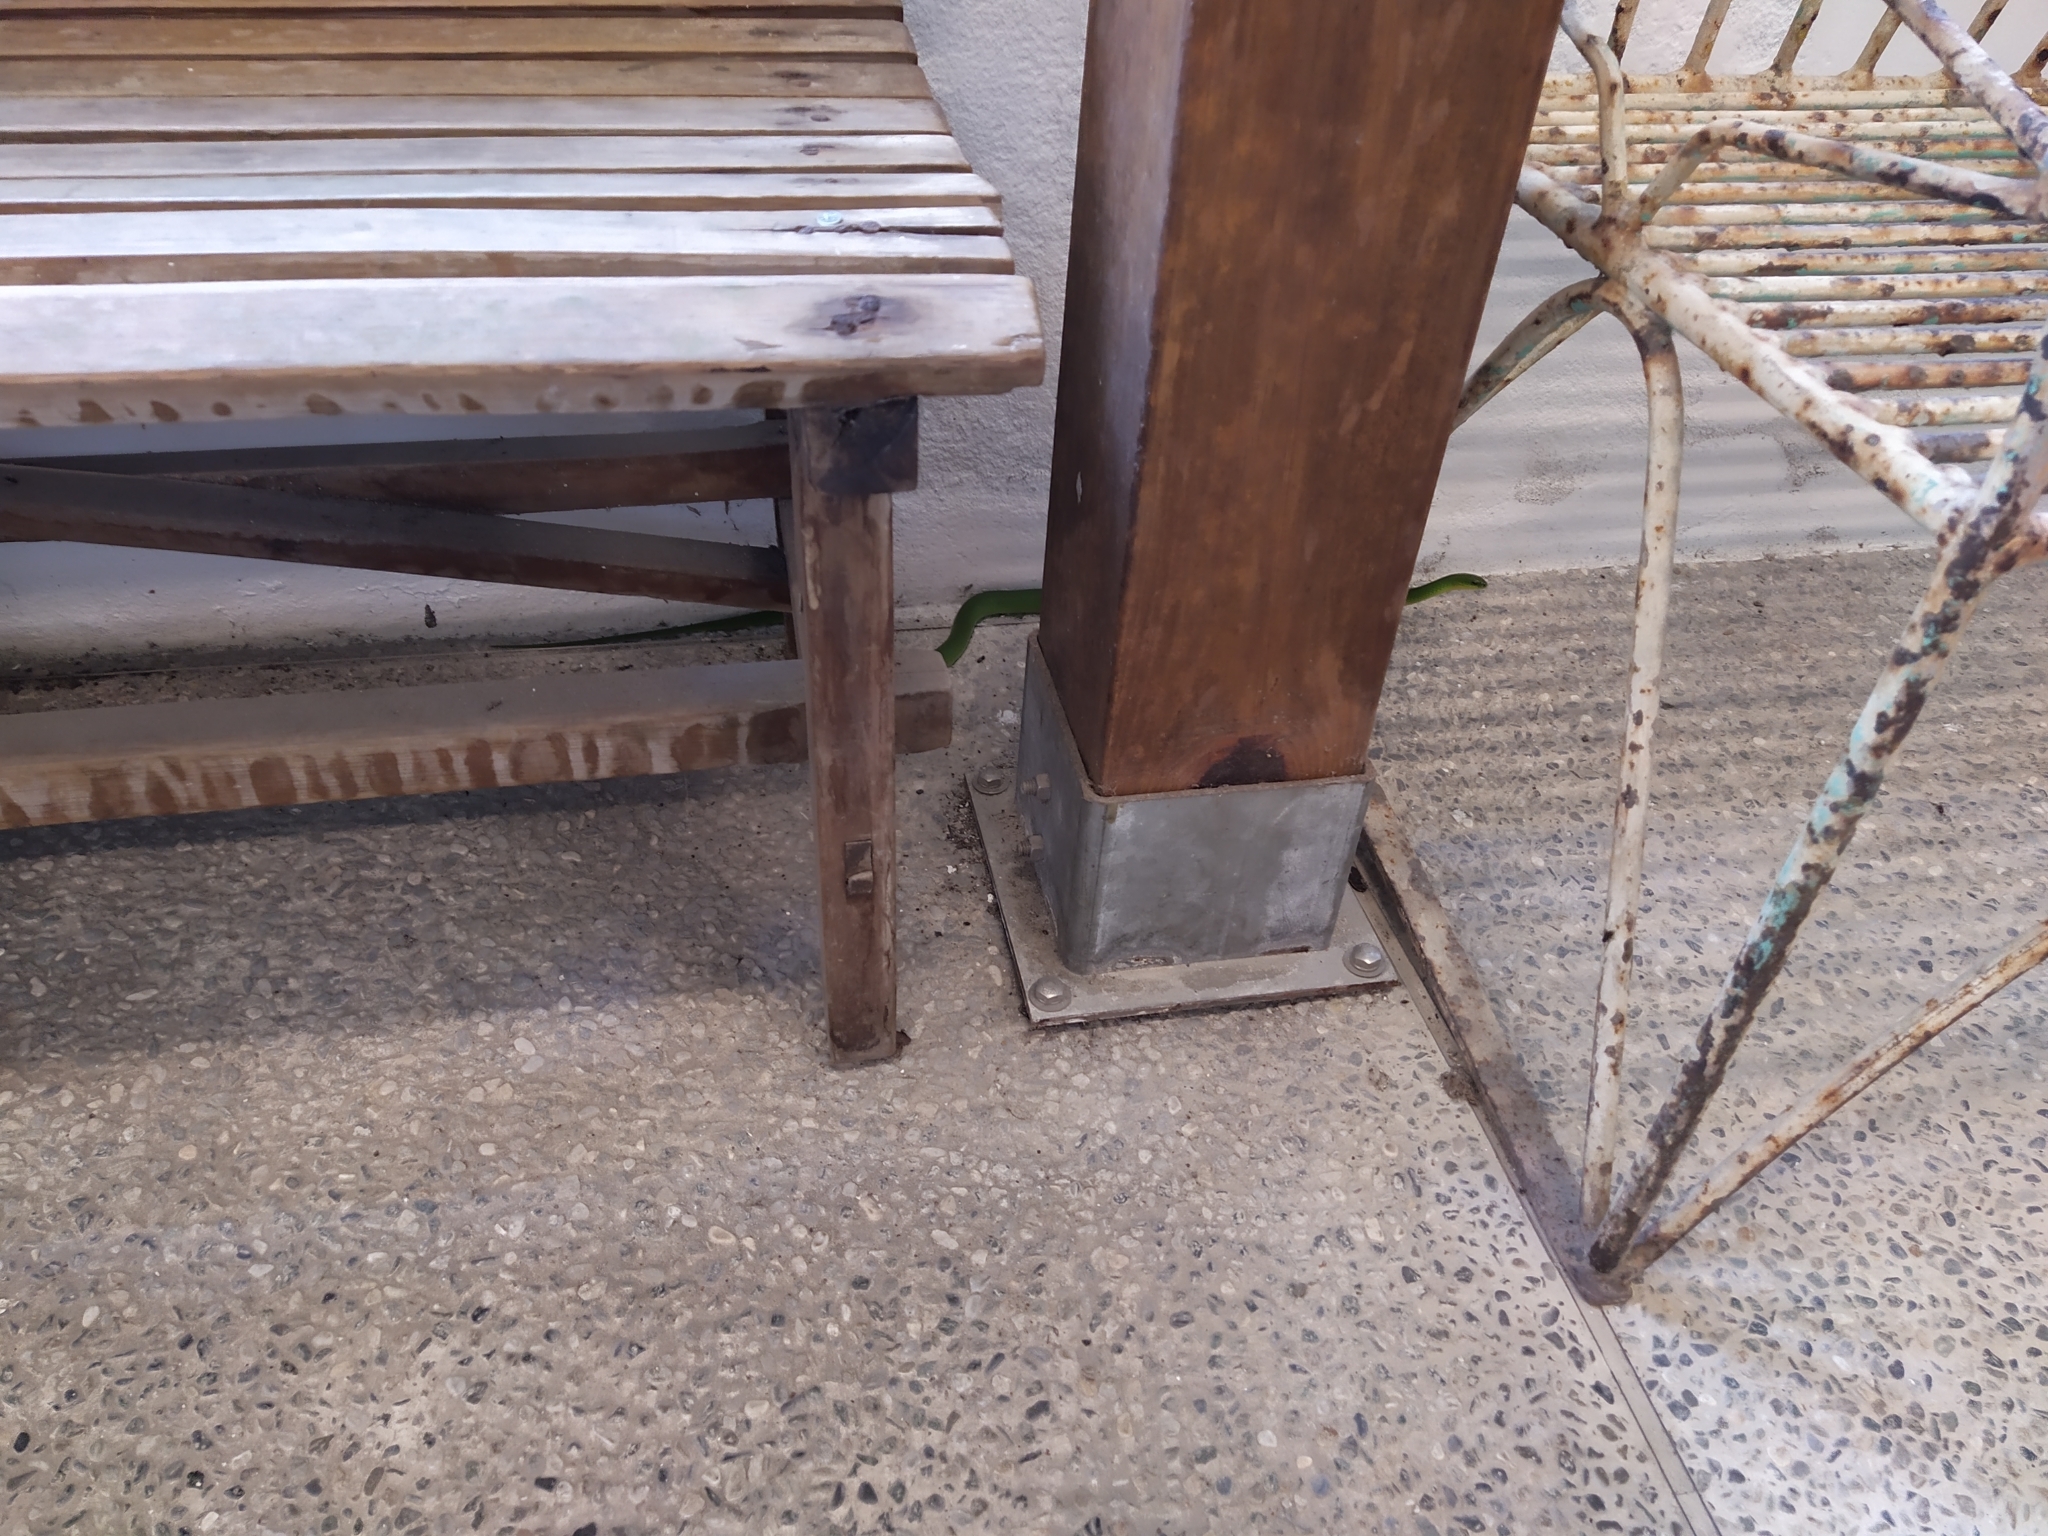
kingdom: Animalia
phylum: Chordata
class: Squamata
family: Colubridae
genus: Ptyas
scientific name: Ptyas major
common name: Chinese green snake
